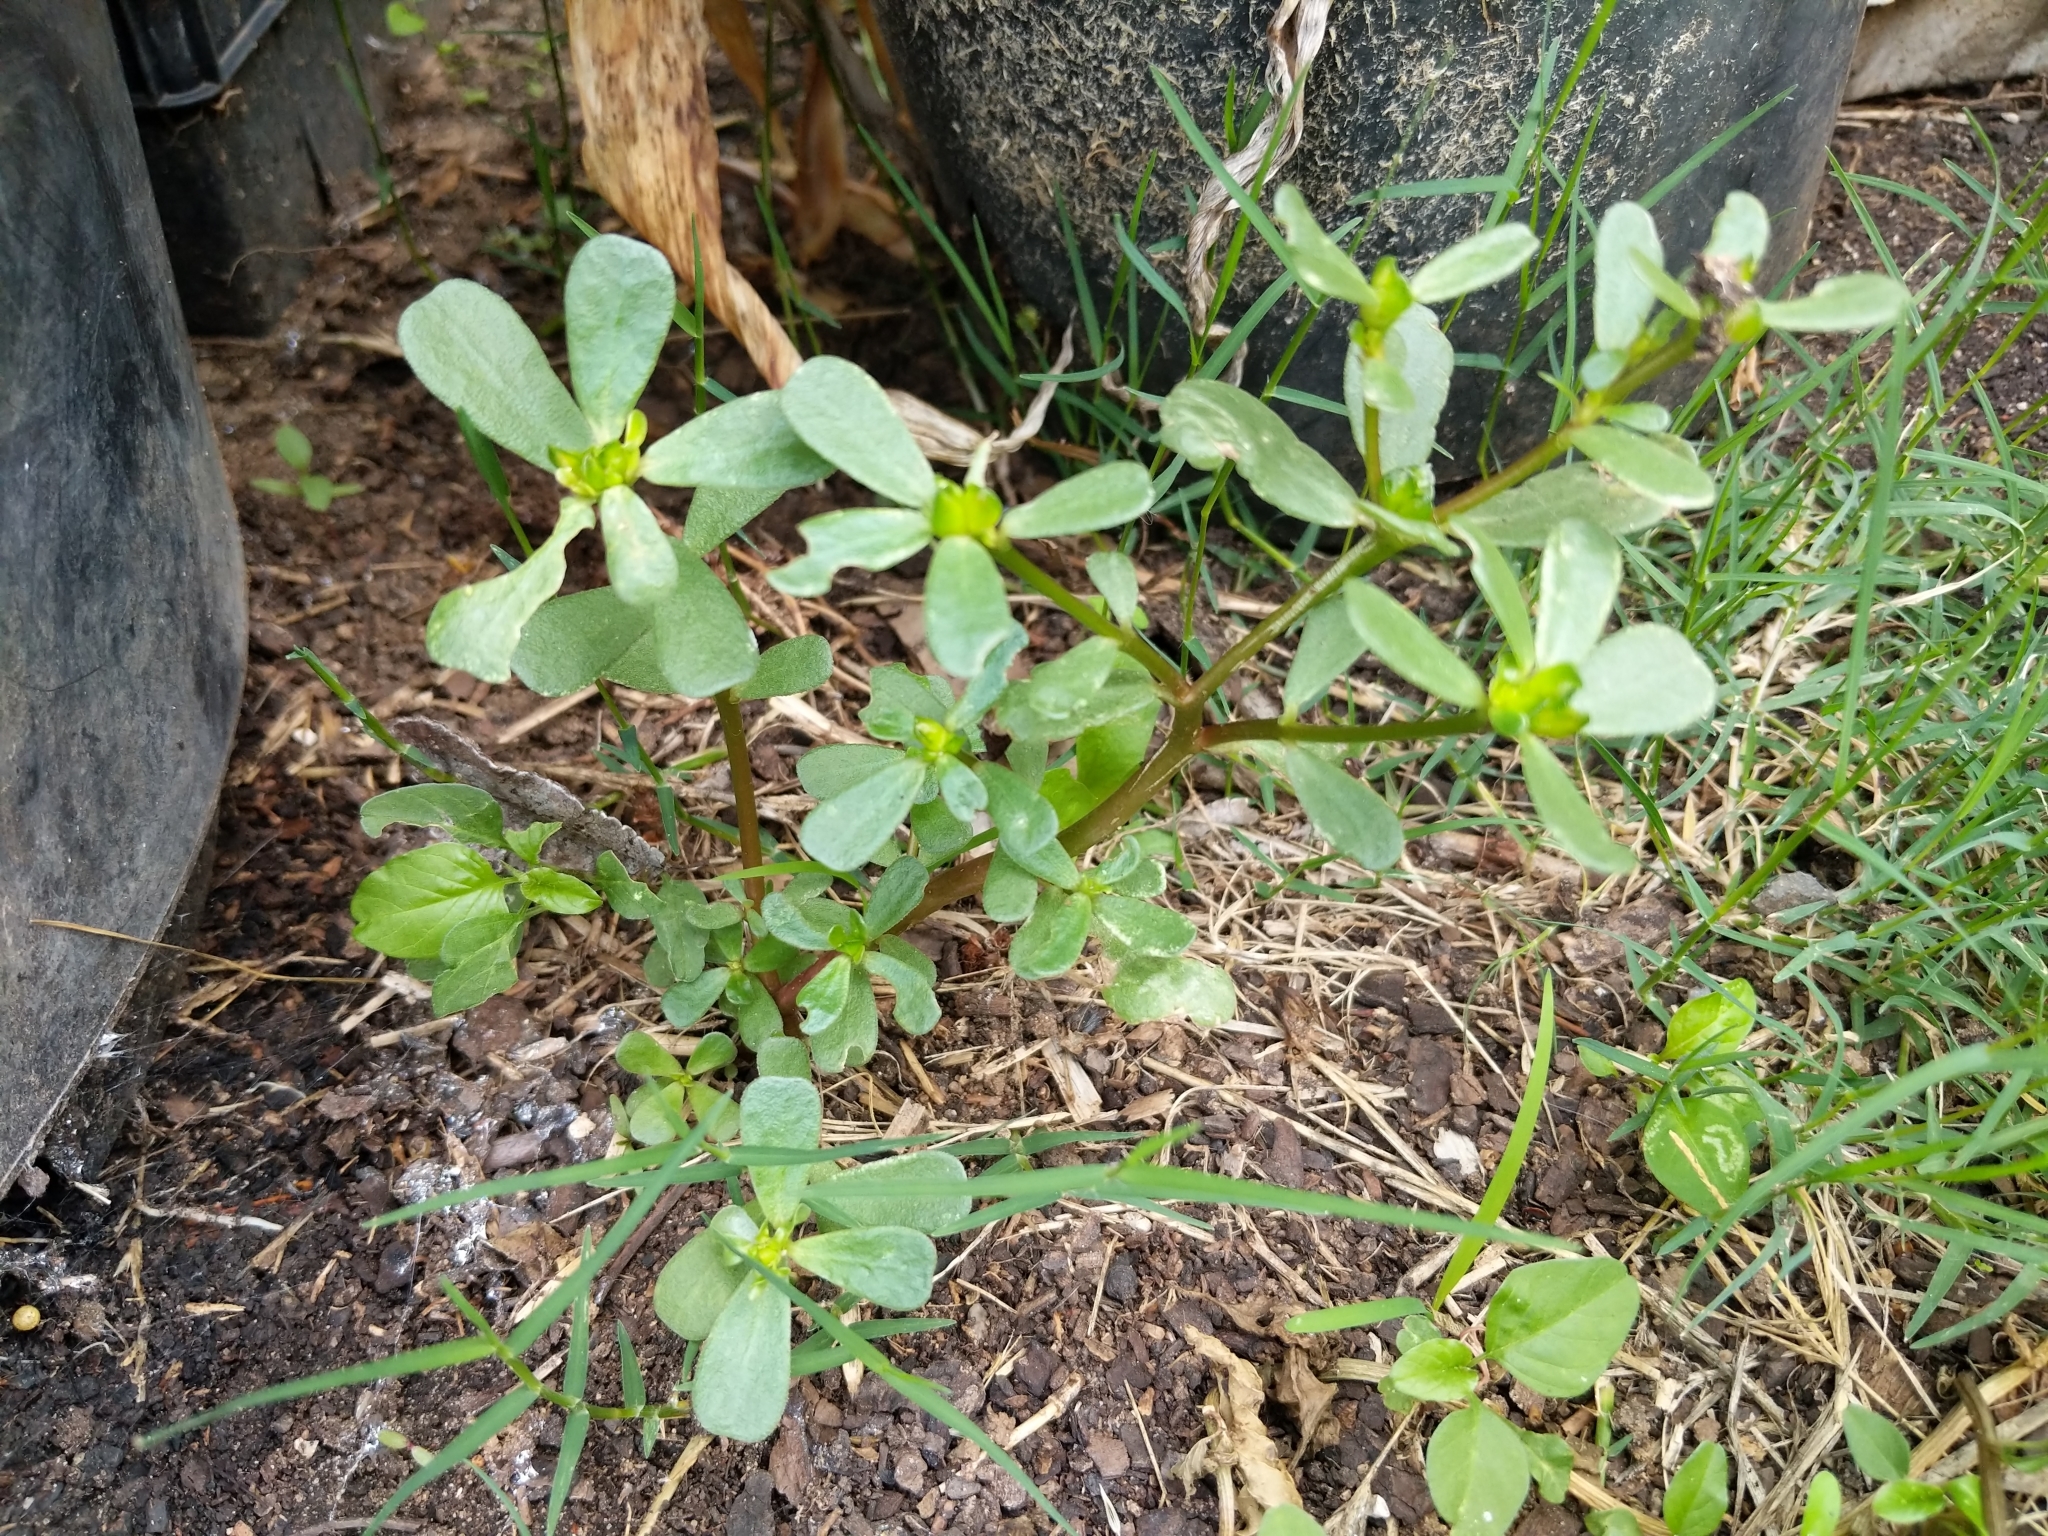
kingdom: Plantae
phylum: Tracheophyta
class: Magnoliopsida
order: Caryophyllales
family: Portulacaceae
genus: Portulaca
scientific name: Portulaca oleracea
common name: Common purslane
